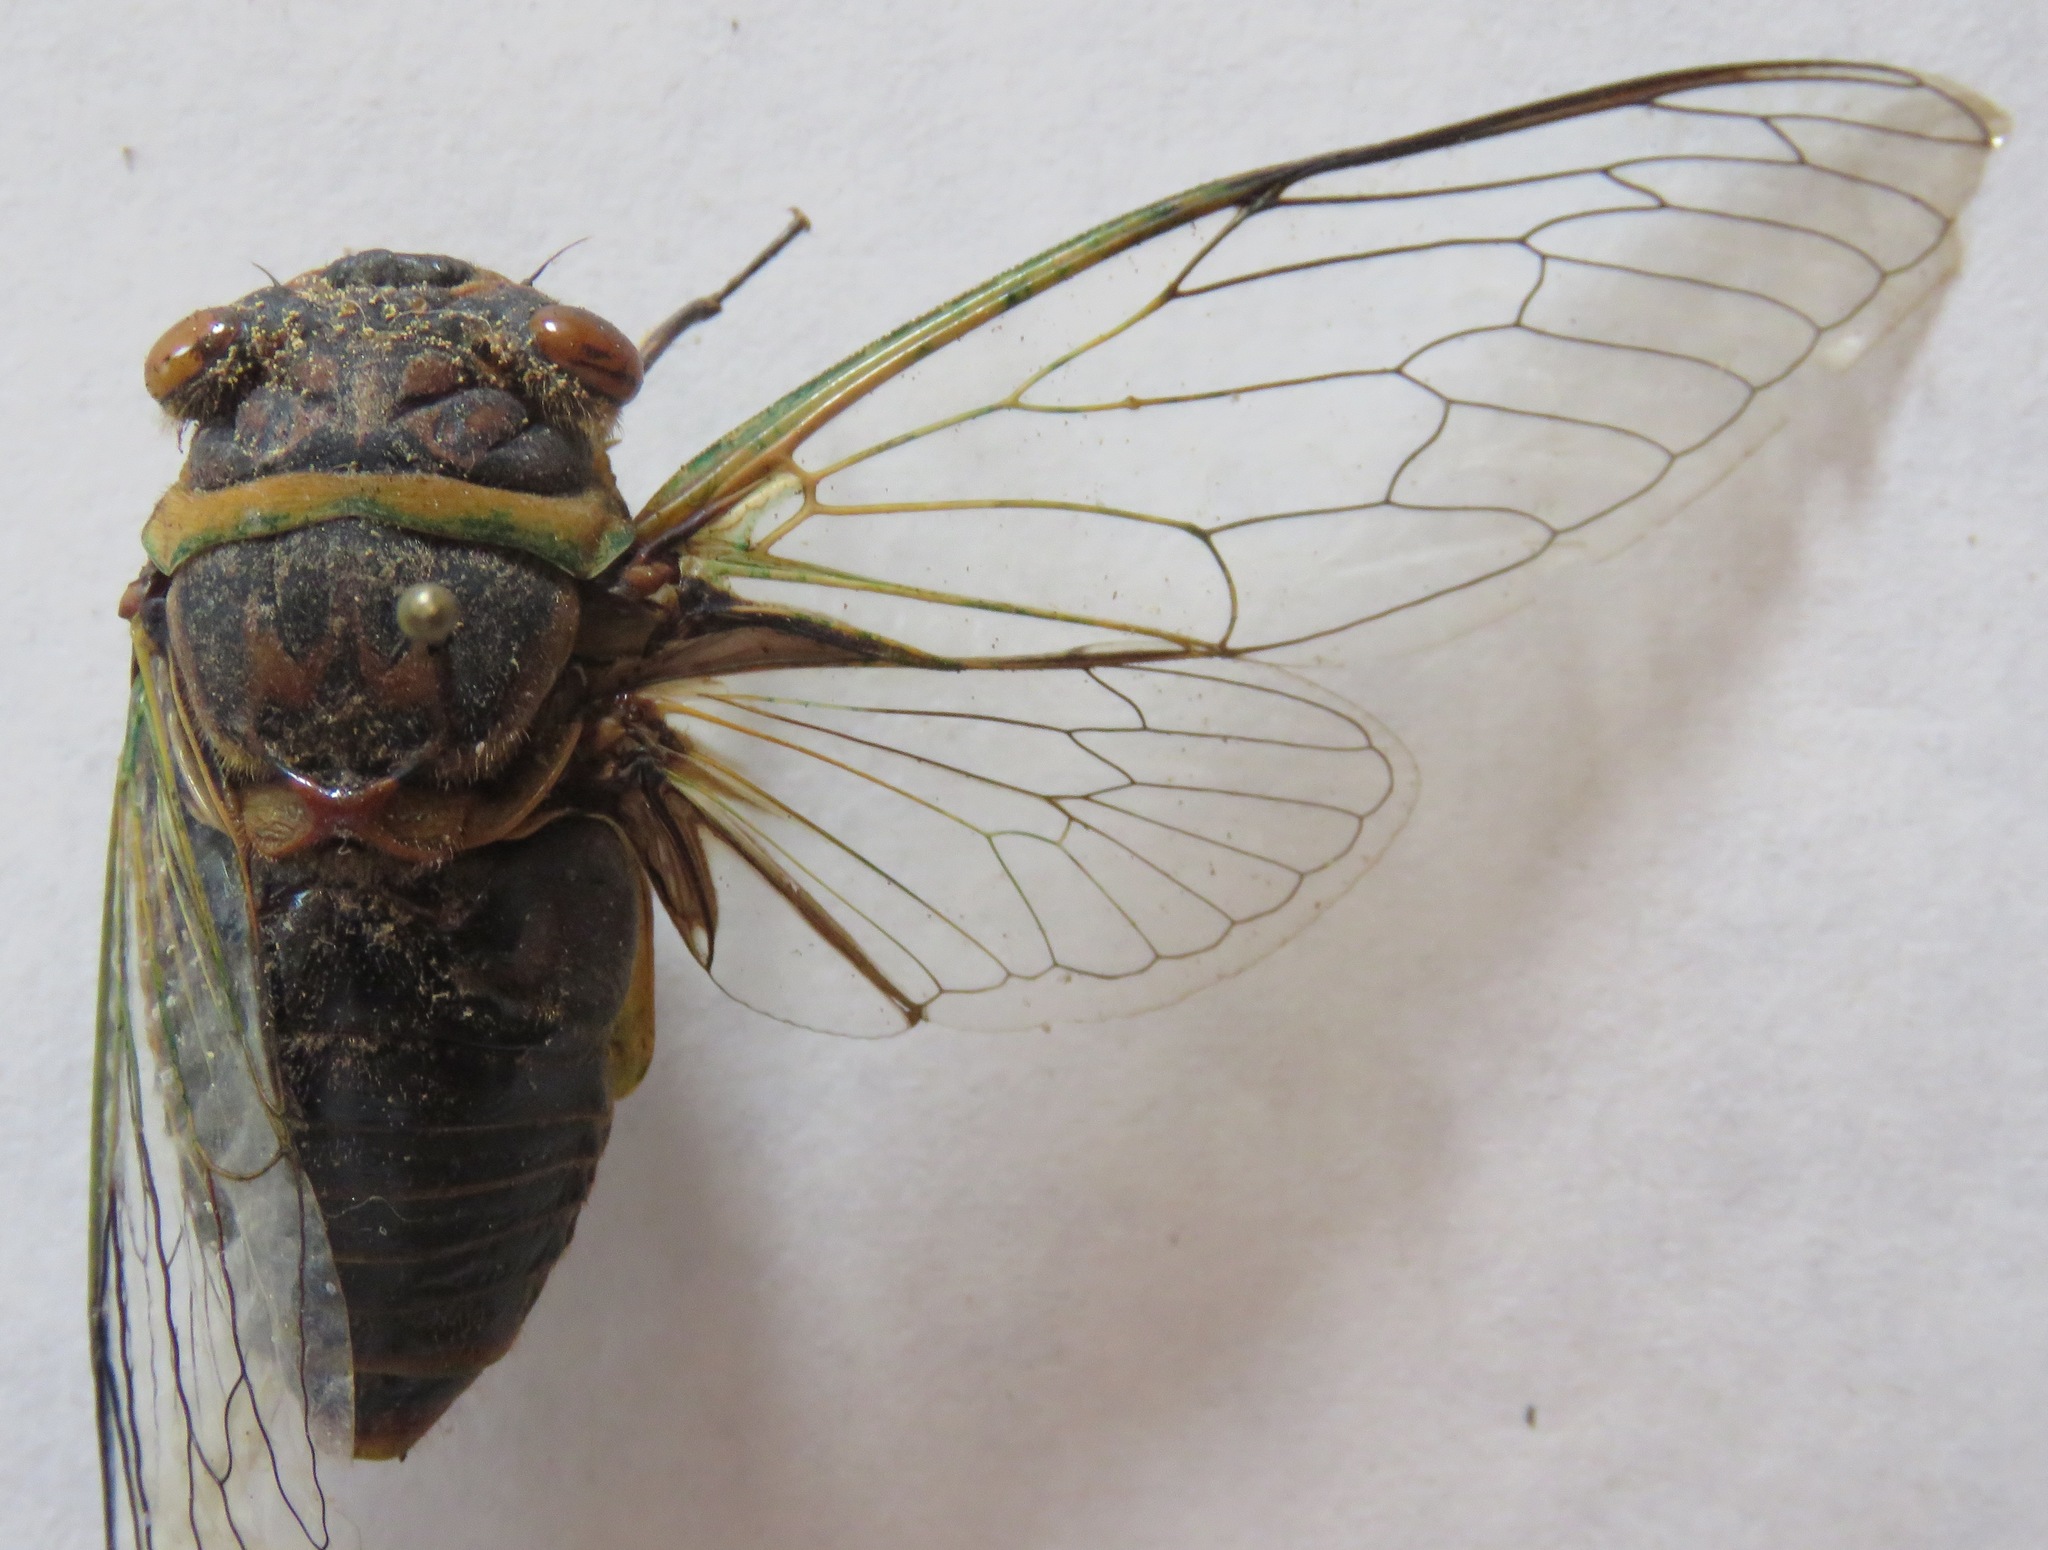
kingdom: Animalia
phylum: Arthropoda
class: Insecta
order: Hemiptera
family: Cicadidae
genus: Diceroprocta
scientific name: Diceroprocta ruatana
